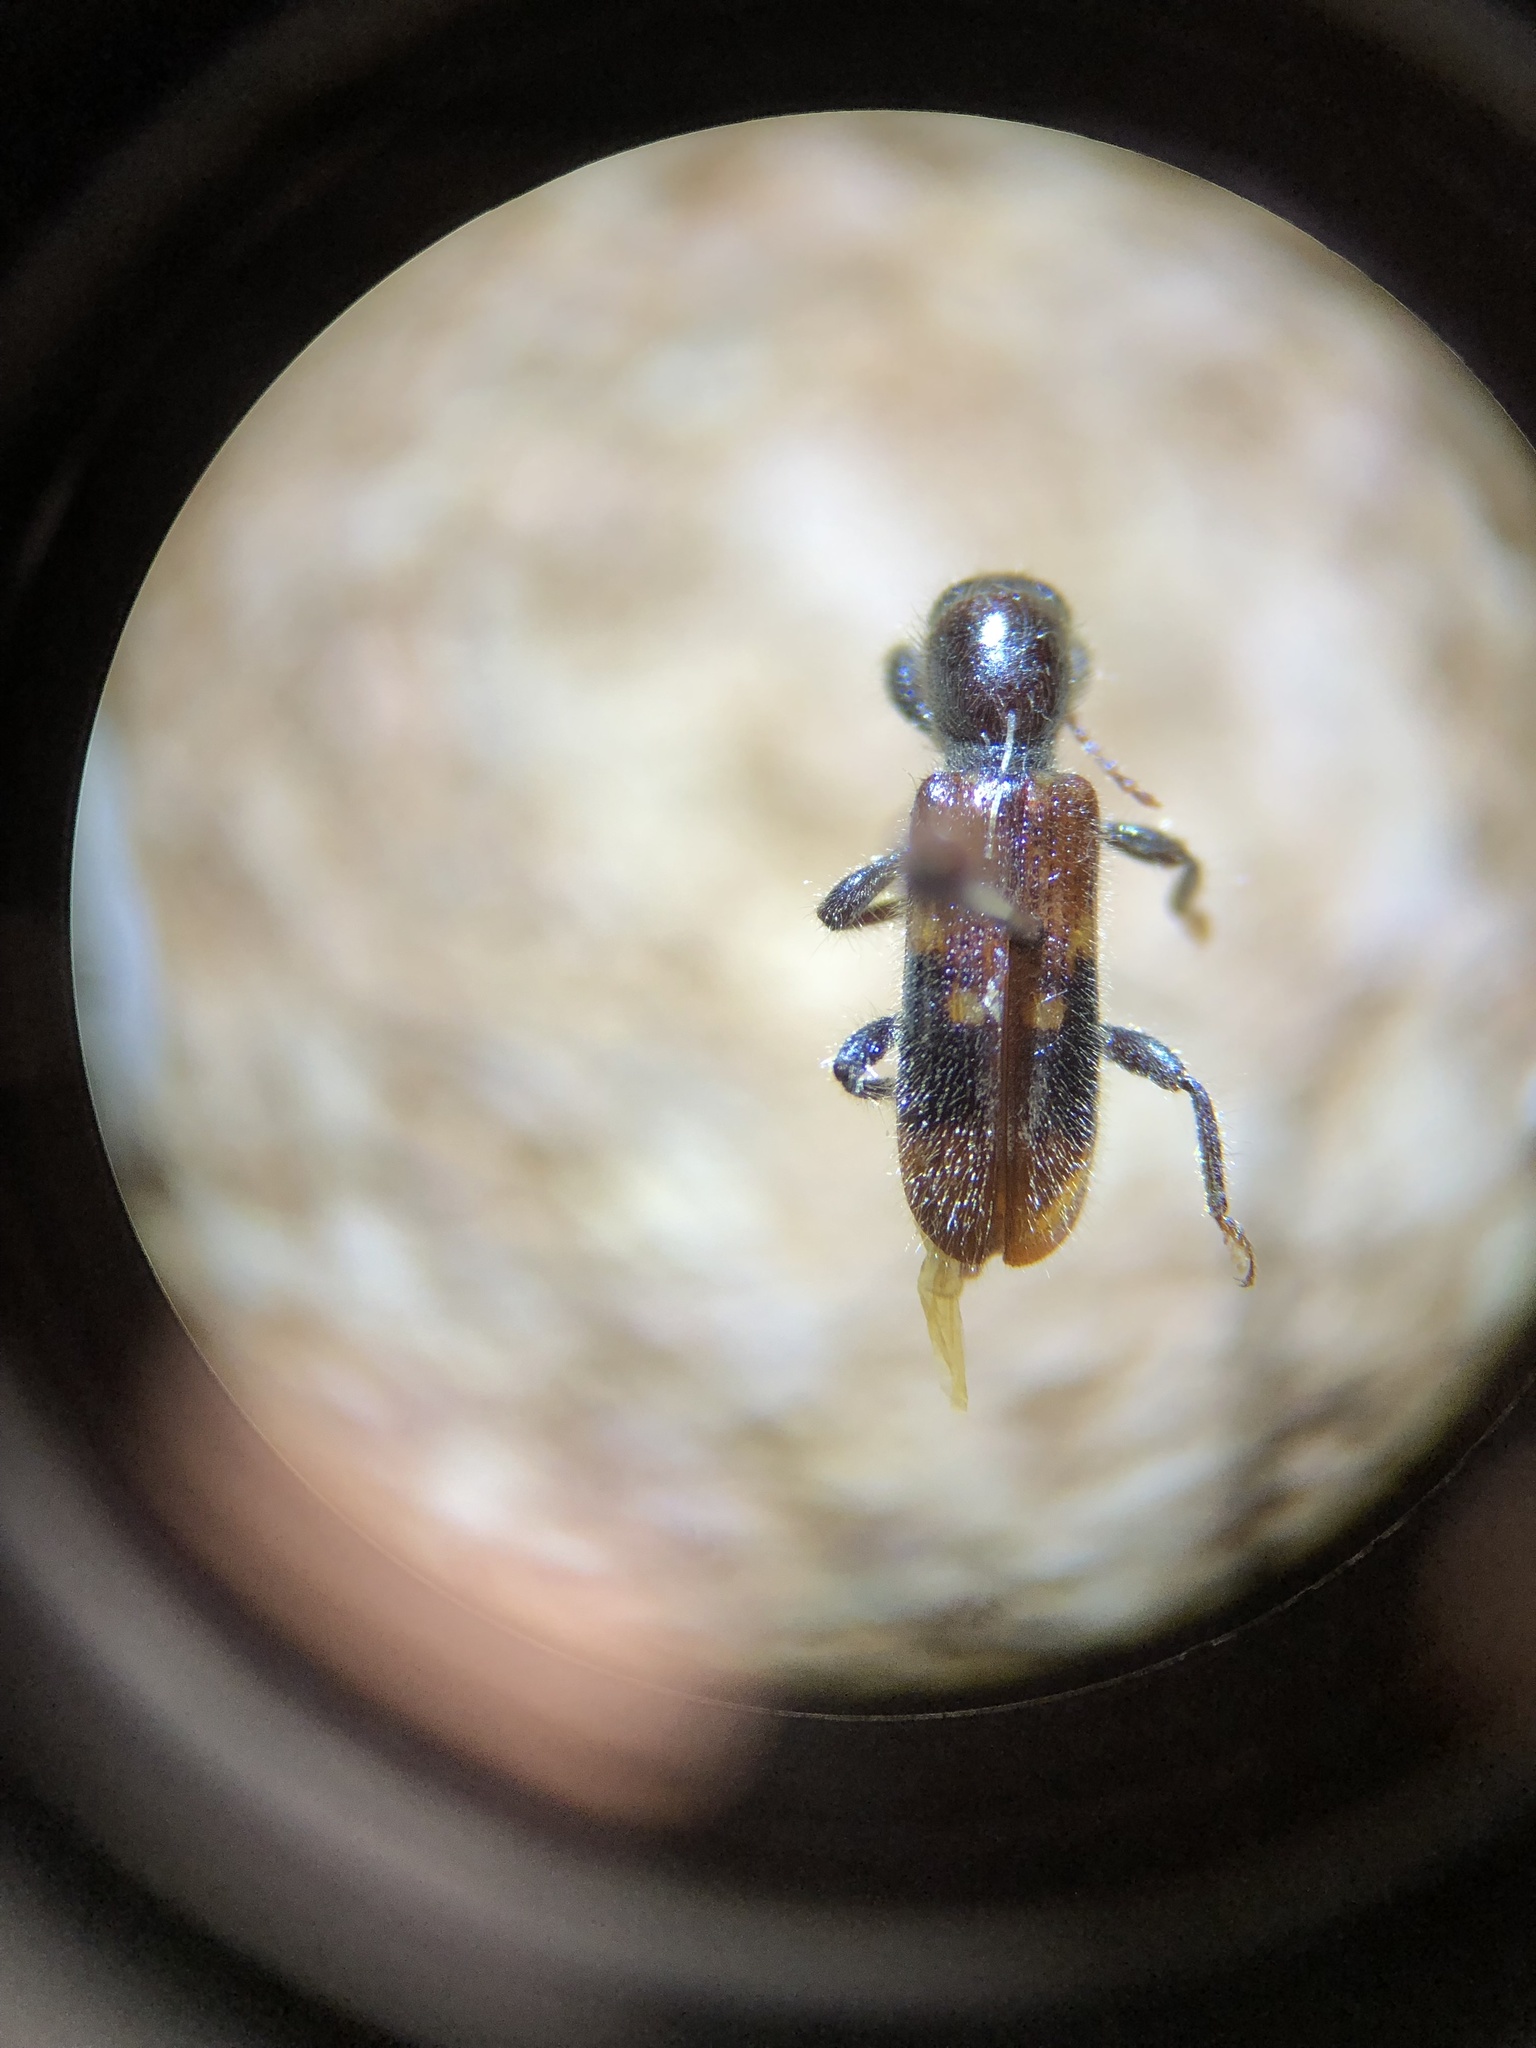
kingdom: Animalia
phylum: Arthropoda
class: Insecta
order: Coleoptera
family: Cleridae
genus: Priocera
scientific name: Priocera castanea
